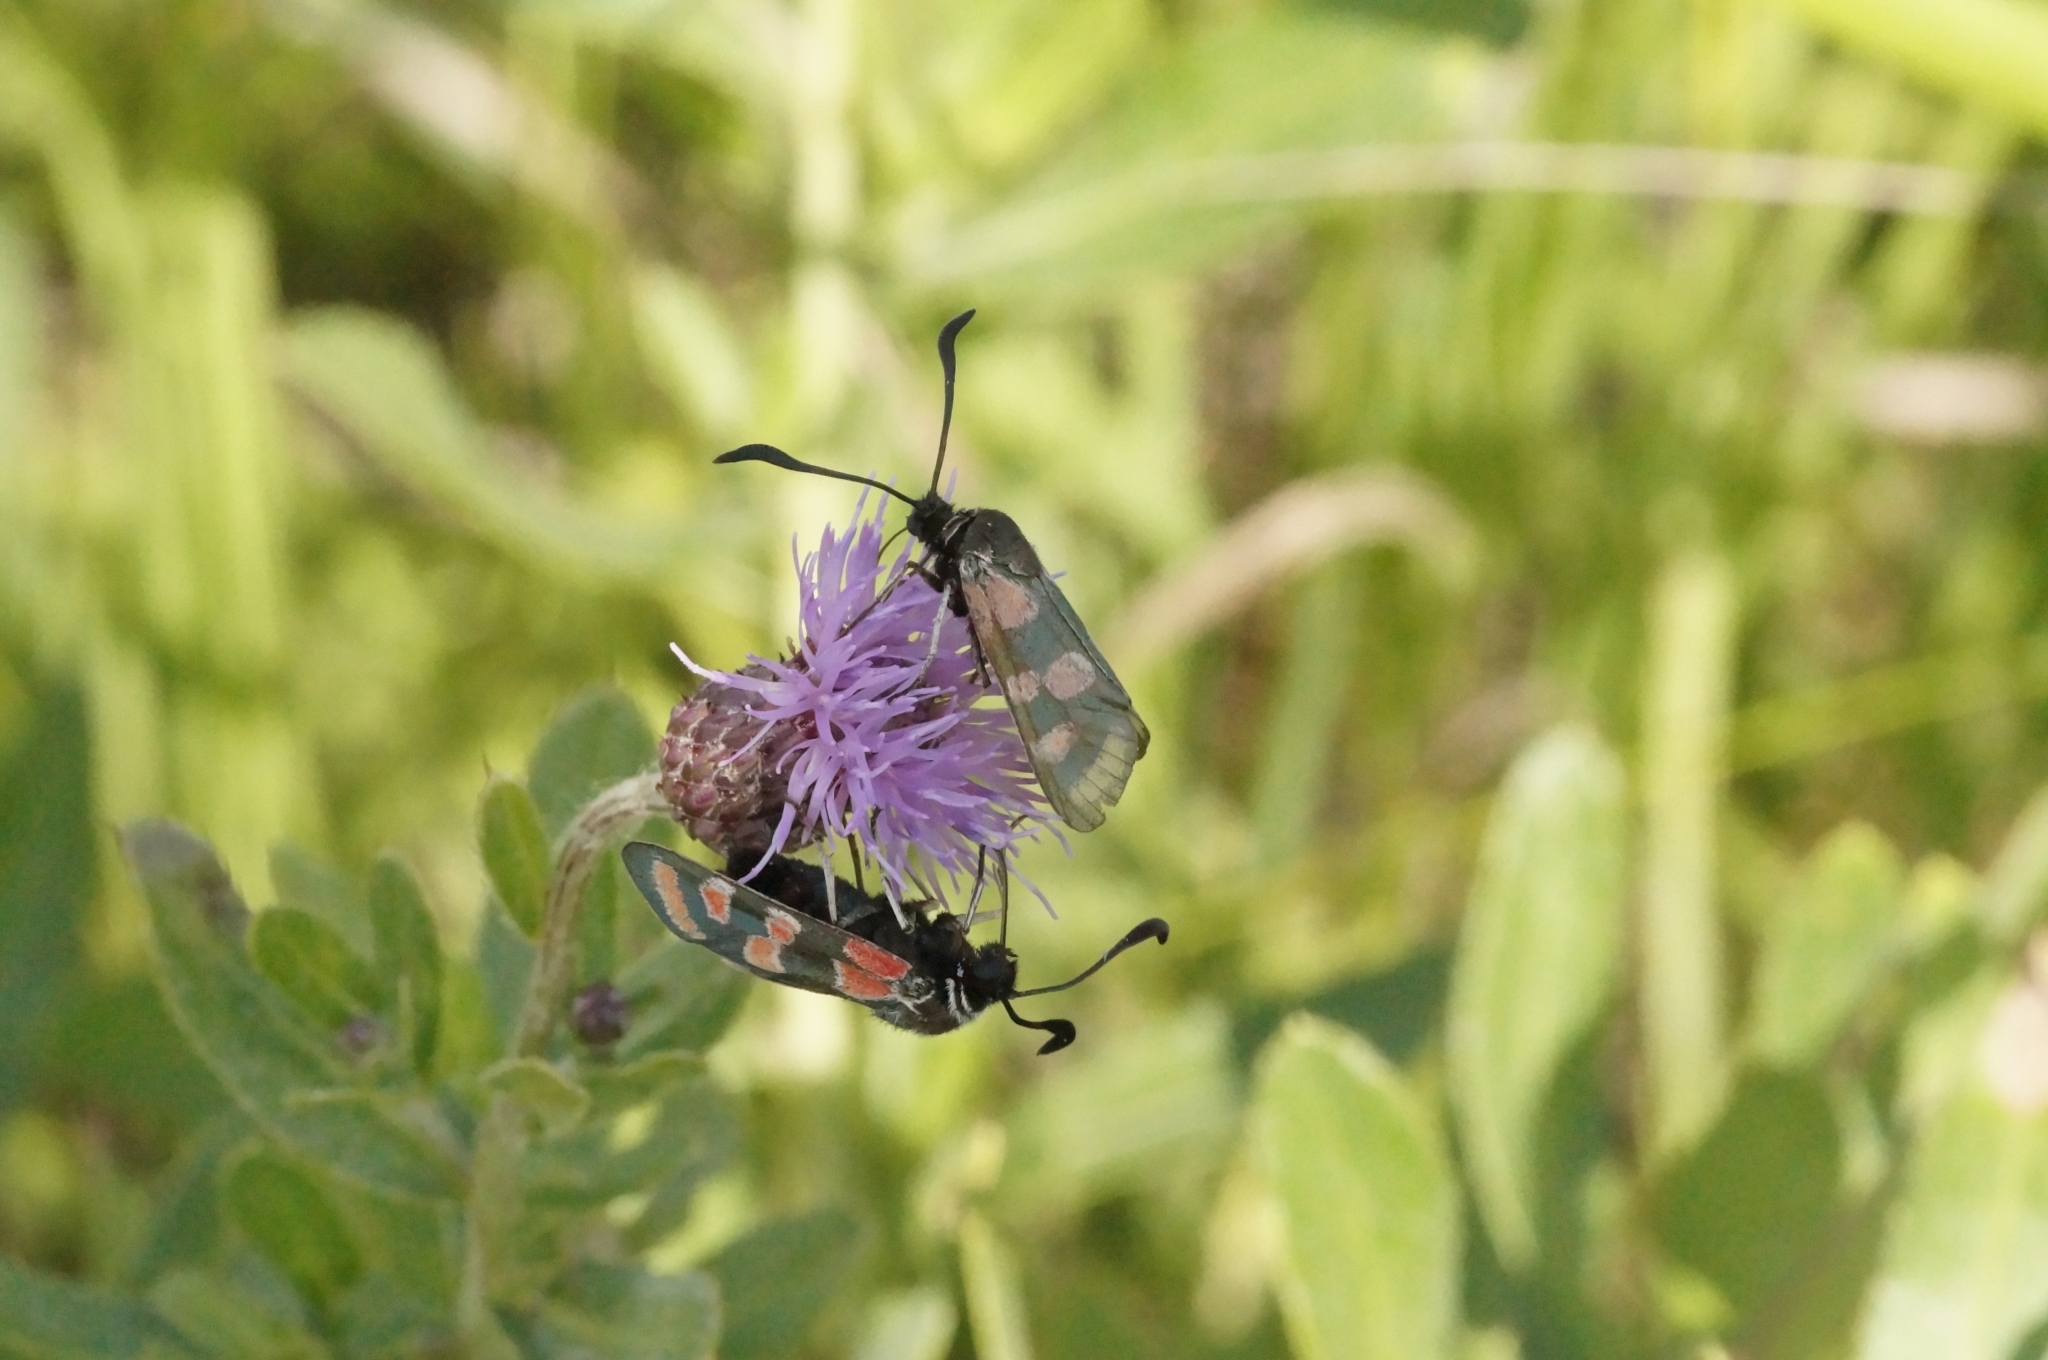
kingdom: Animalia
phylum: Arthropoda
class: Insecta
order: Lepidoptera
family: Zygaenidae
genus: Zygaena
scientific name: Zygaena carniolica
